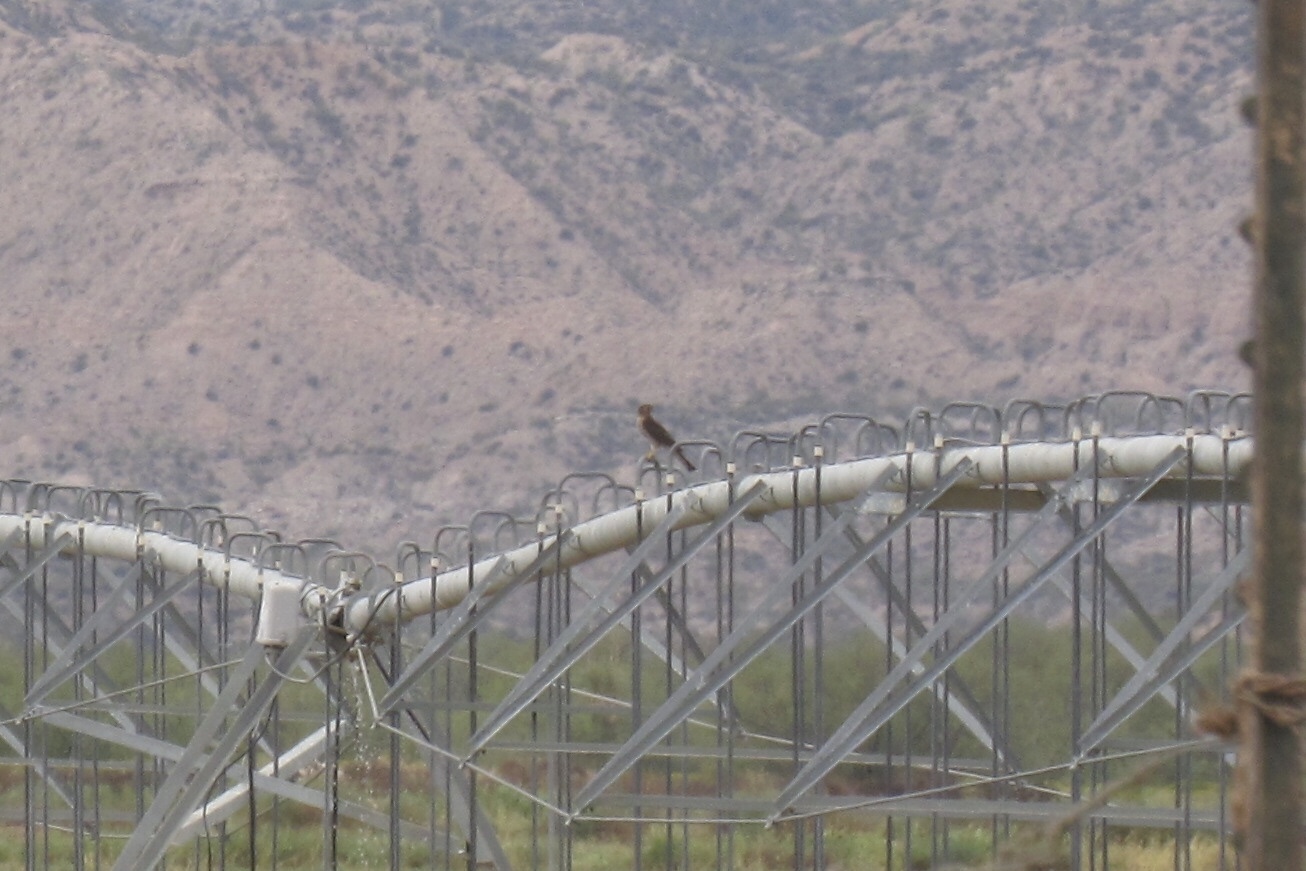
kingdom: Animalia
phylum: Chordata
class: Aves
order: Accipitriformes
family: Accipitridae
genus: Accipiter
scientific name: Accipiter cooperii
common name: Cooper's hawk
